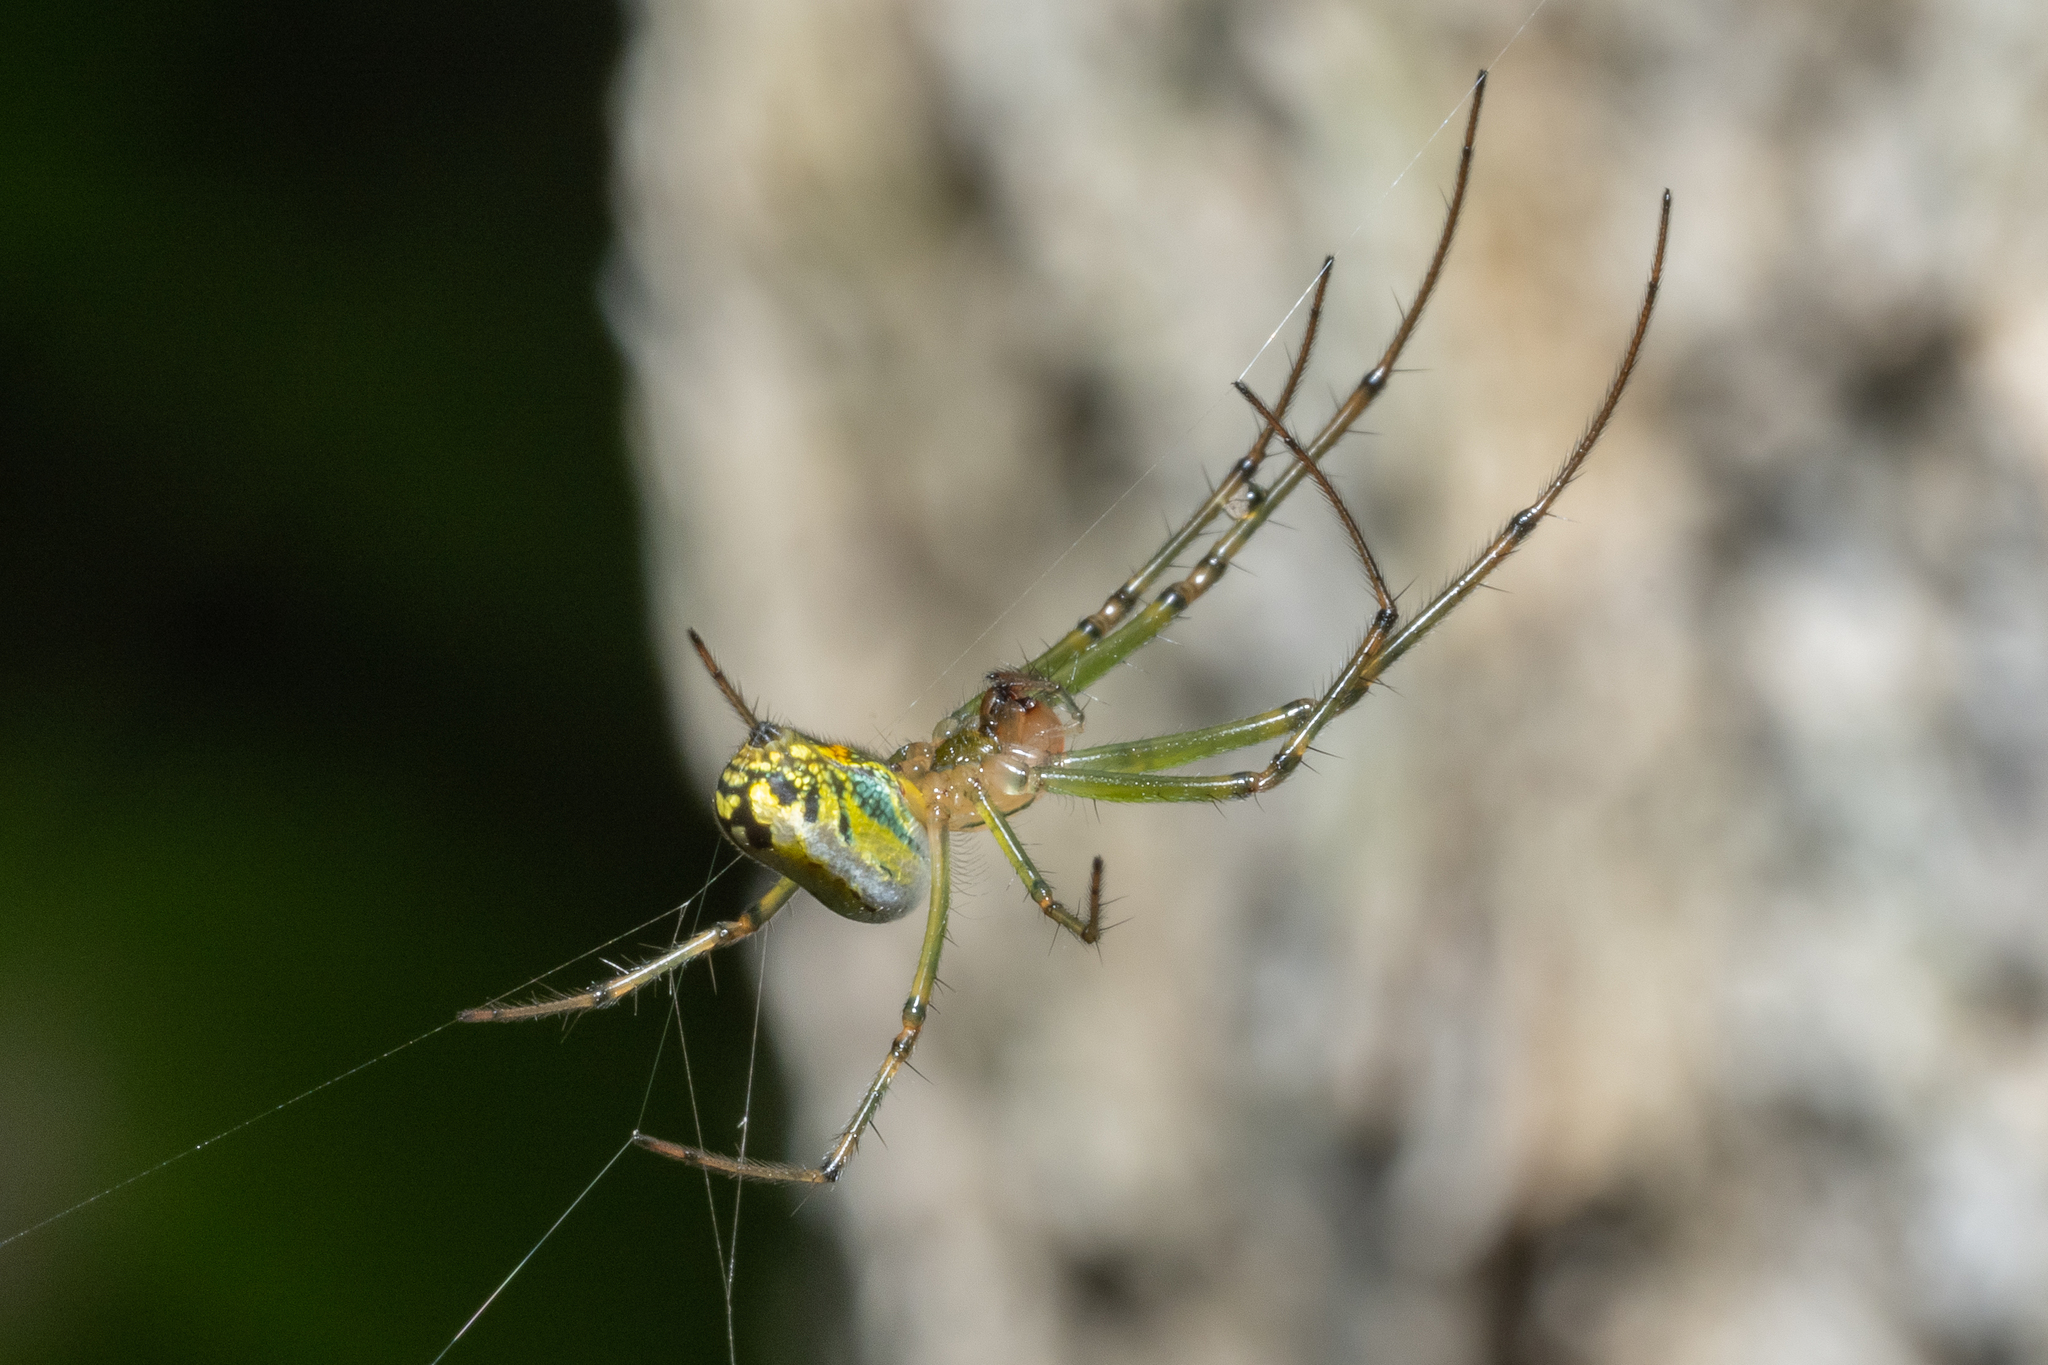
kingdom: Animalia
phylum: Arthropoda
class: Arachnida
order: Araneae
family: Tetragnathidae
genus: Leucauge
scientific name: Leucauge venusta
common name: Longjawed orb weavers
